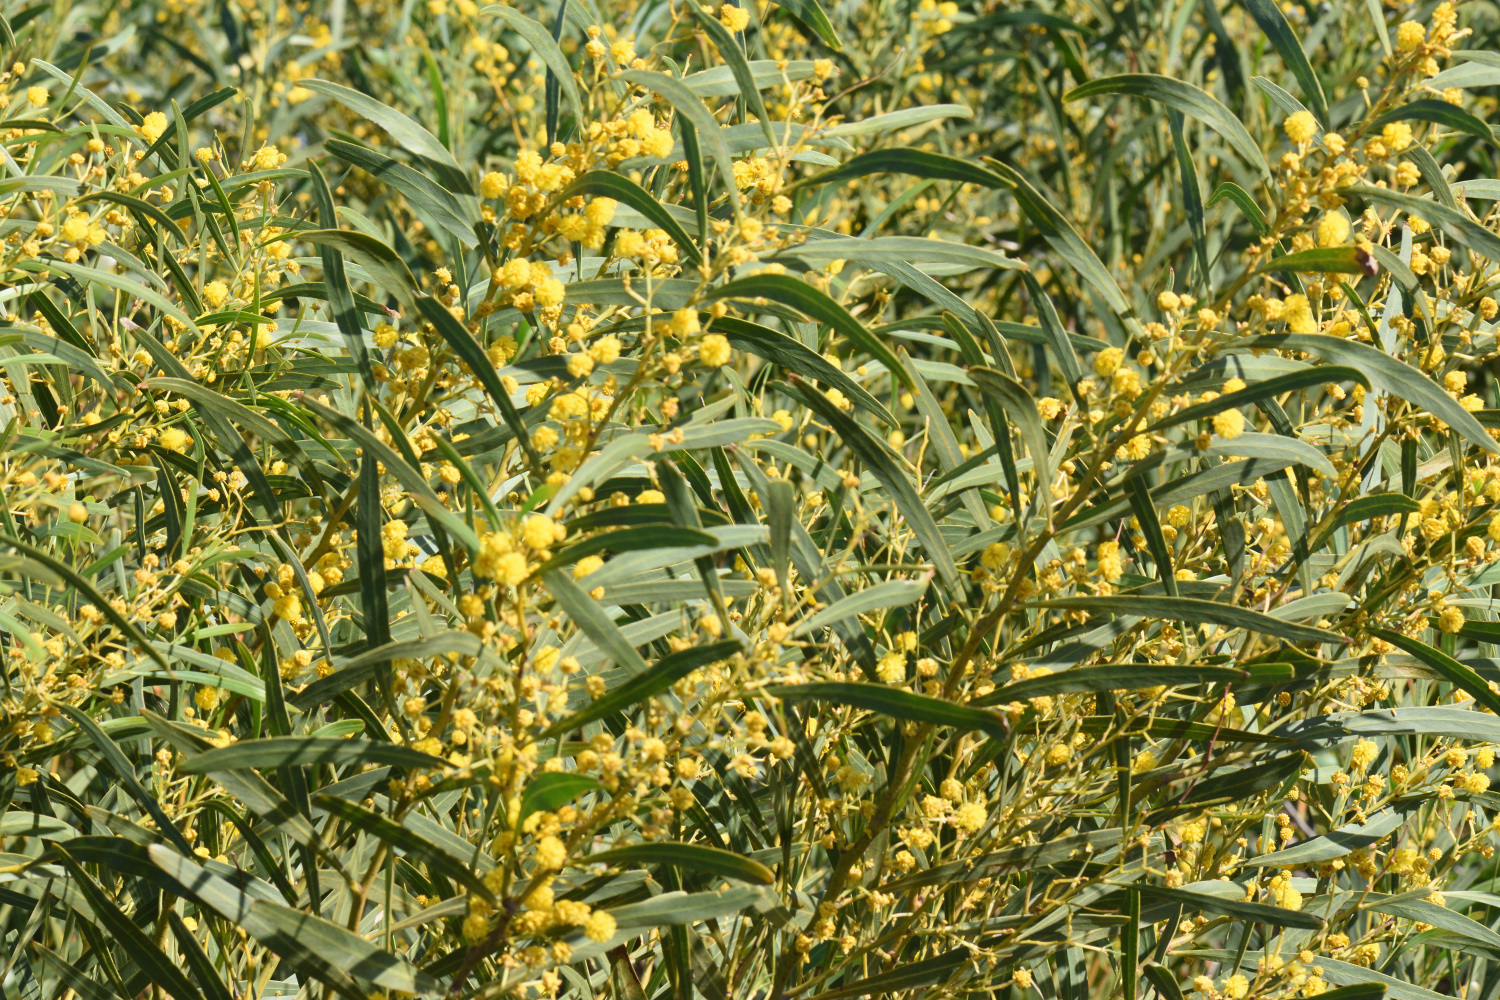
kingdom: Plantae
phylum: Tracheophyta
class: Magnoliopsida
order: Fabales
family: Fabaceae
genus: Acacia
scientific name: Acacia saligna
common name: Orange wattle
